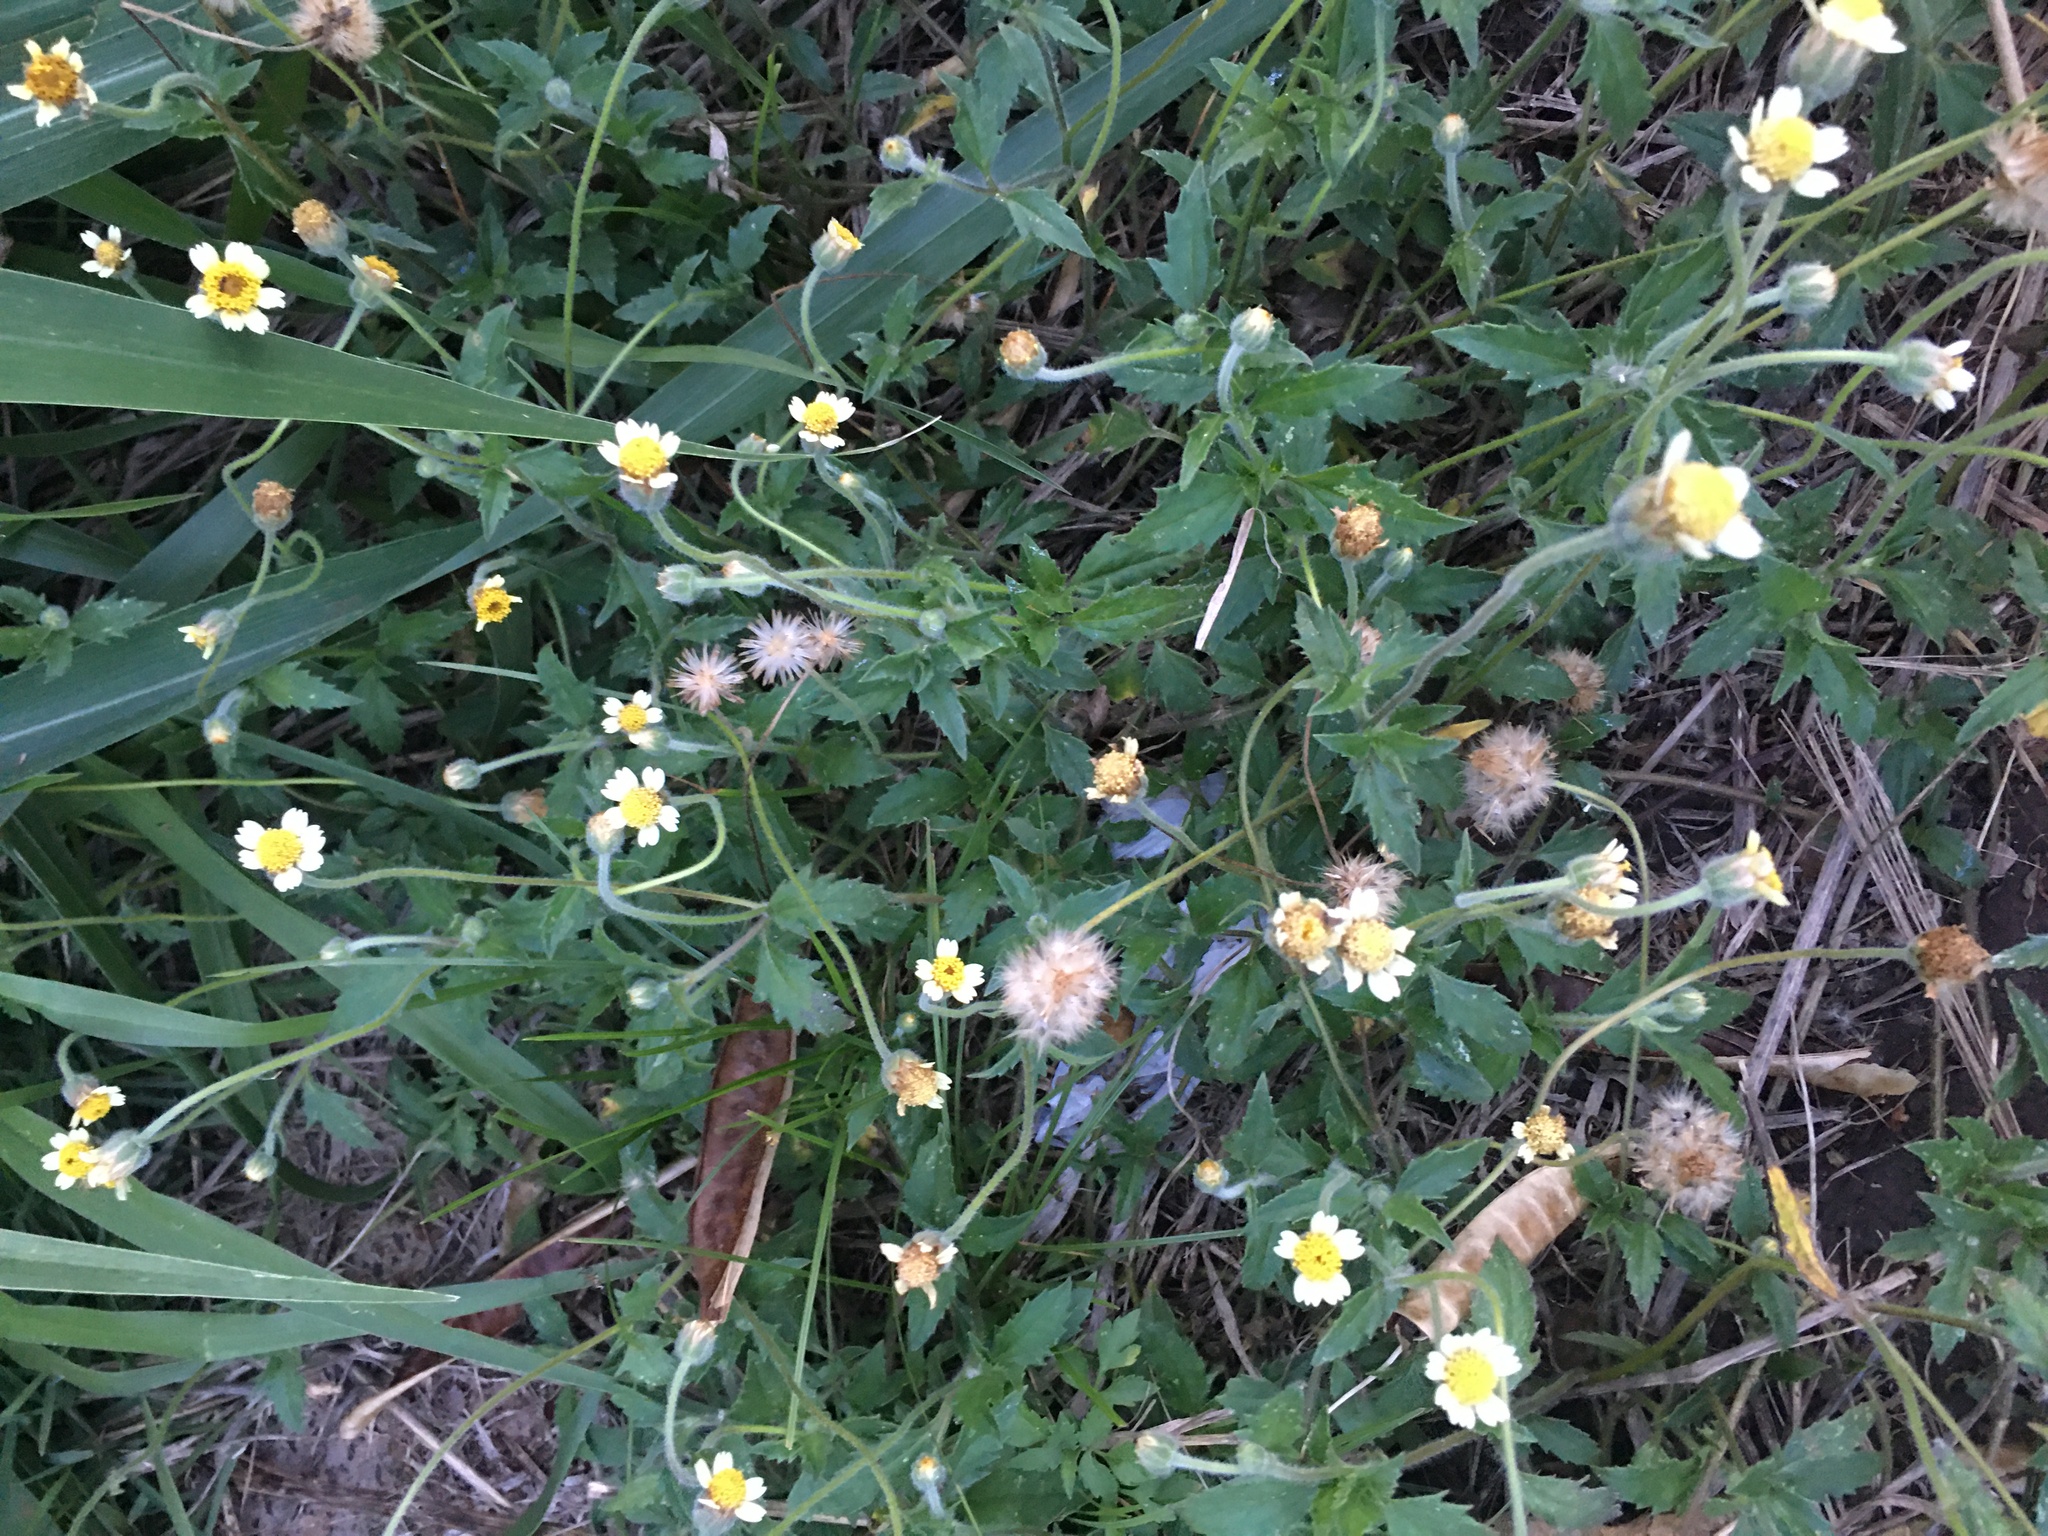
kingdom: Plantae
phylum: Tracheophyta
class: Magnoliopsida
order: Asterales
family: Asteraceae
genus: Tridax
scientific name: Tridax procumbens
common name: Coatbuttons
